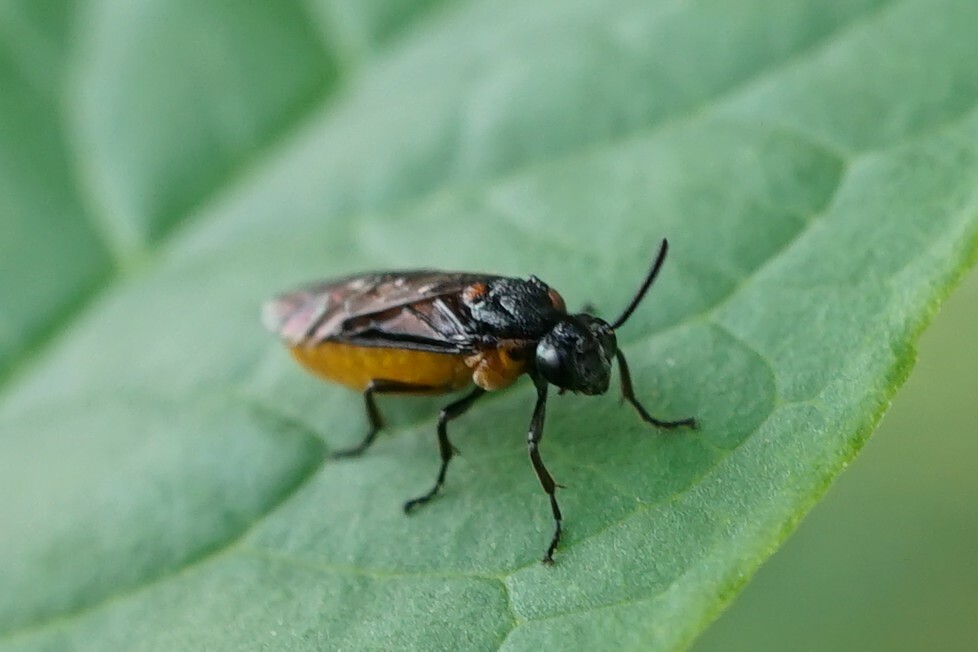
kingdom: Animalia
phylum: Arthropoda
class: Insecta
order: Hymenoptera
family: Argidae
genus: Arge
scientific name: Arge
